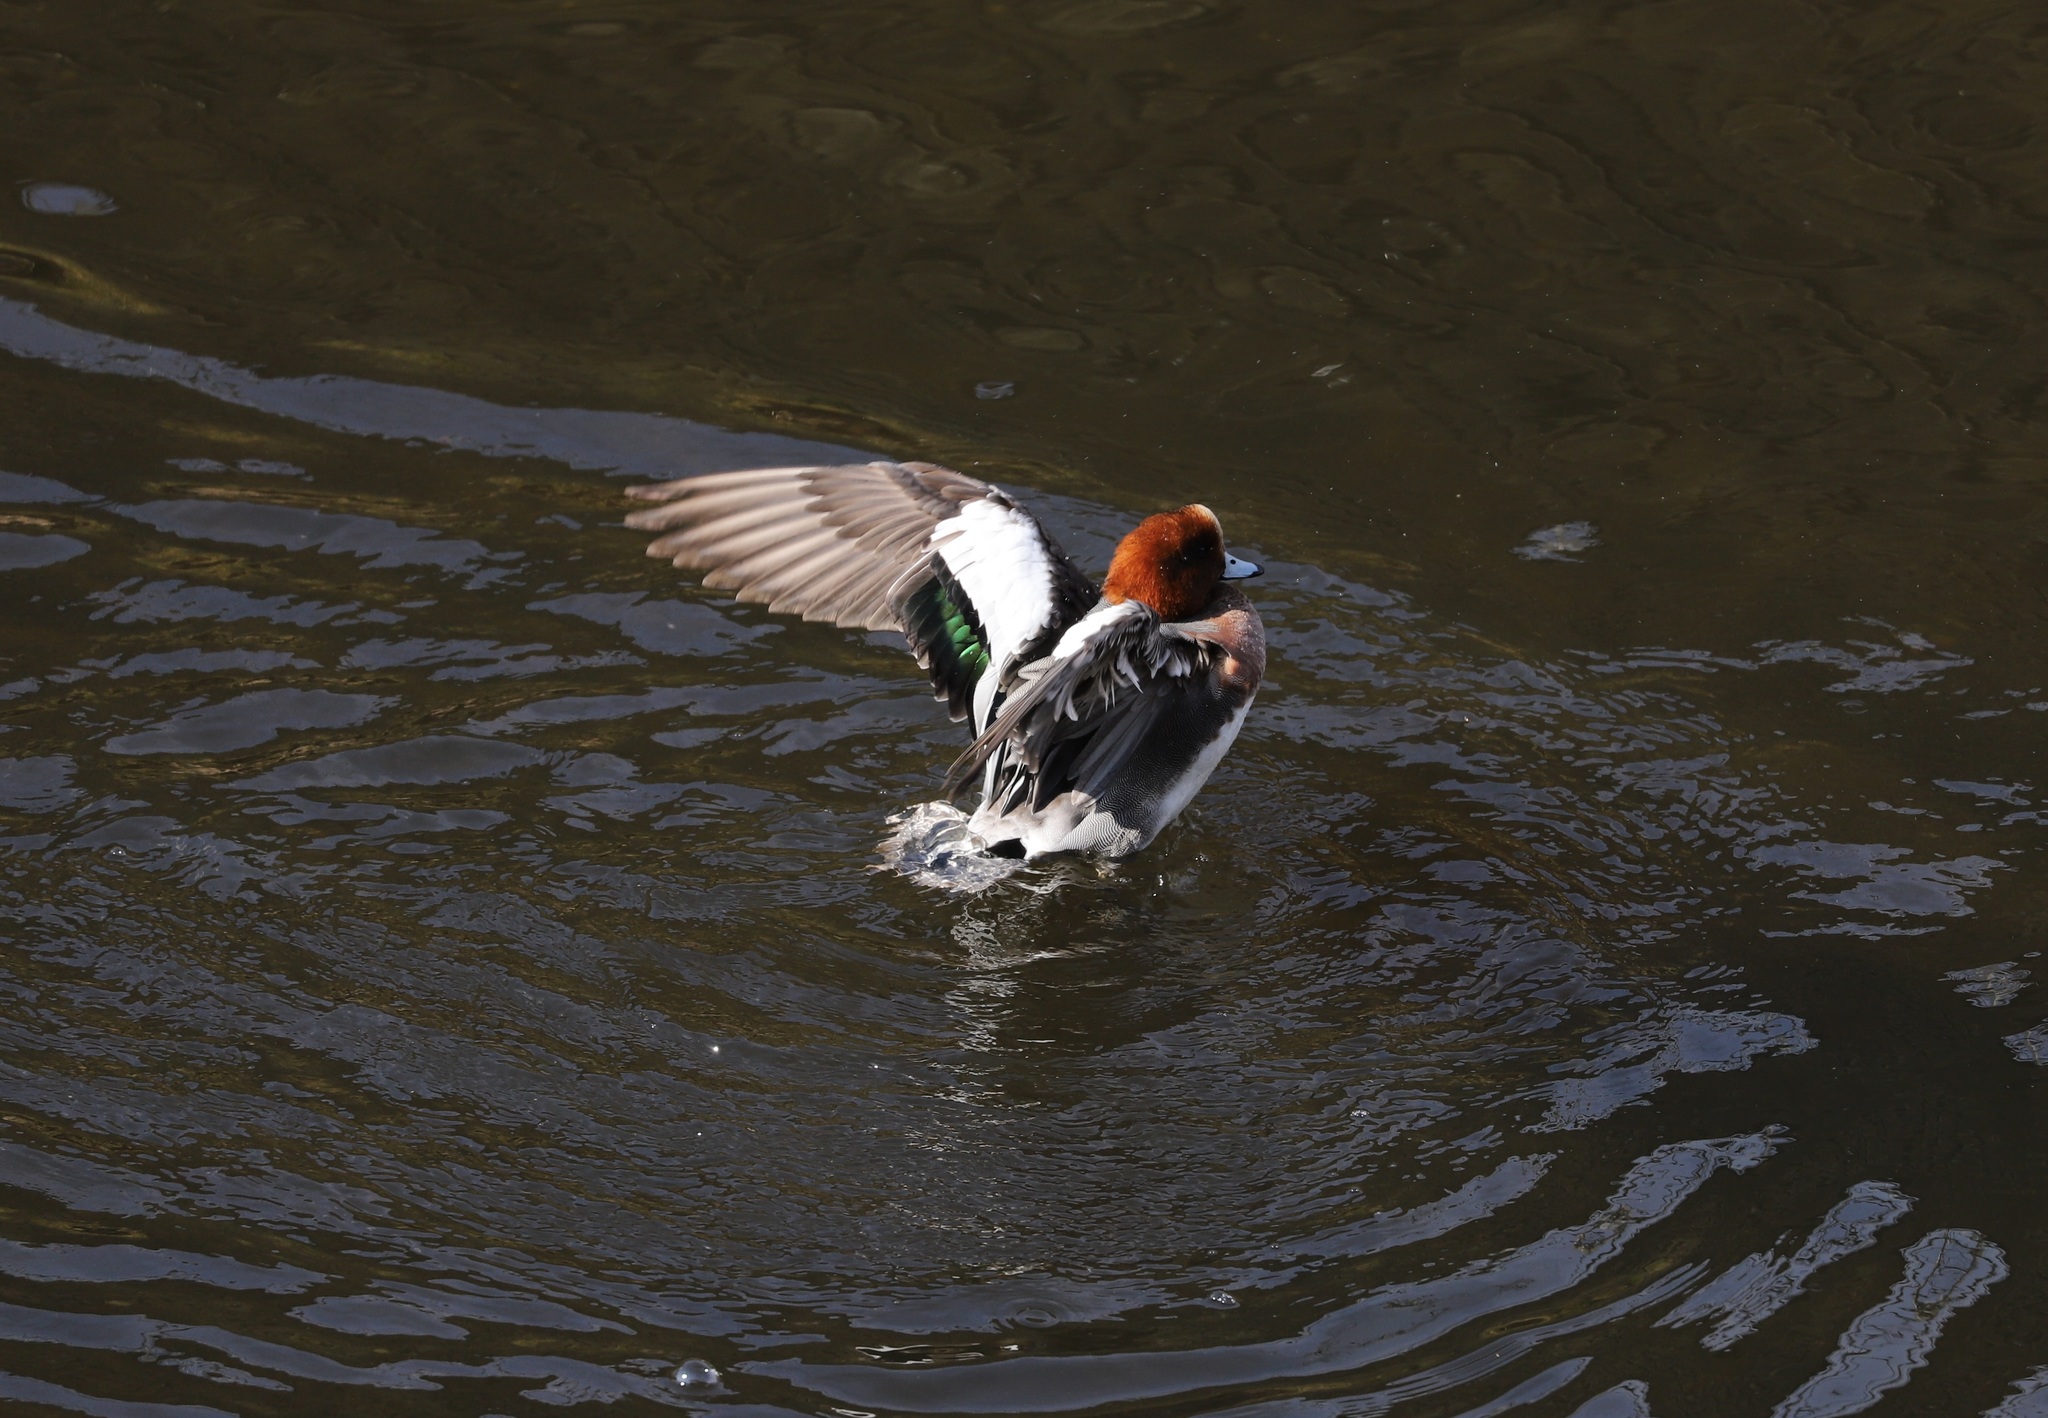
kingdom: Animalia
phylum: Chordata
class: Aves
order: Anseriformes
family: Anatidae
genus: Mareca
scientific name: Mareca penelope
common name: Eurasian wigeon
